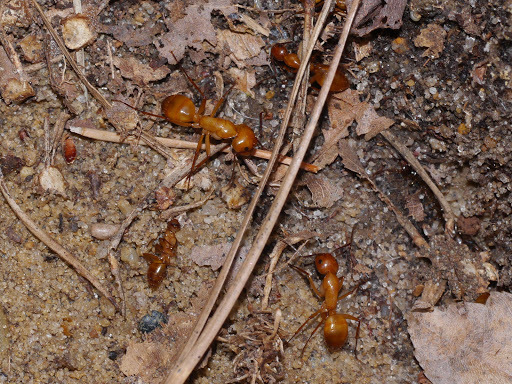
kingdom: Animalia
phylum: Arthropoda
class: Insecta
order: Hymenoptera
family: Formicidae
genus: Camponotus
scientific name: Camponotus castaneus
